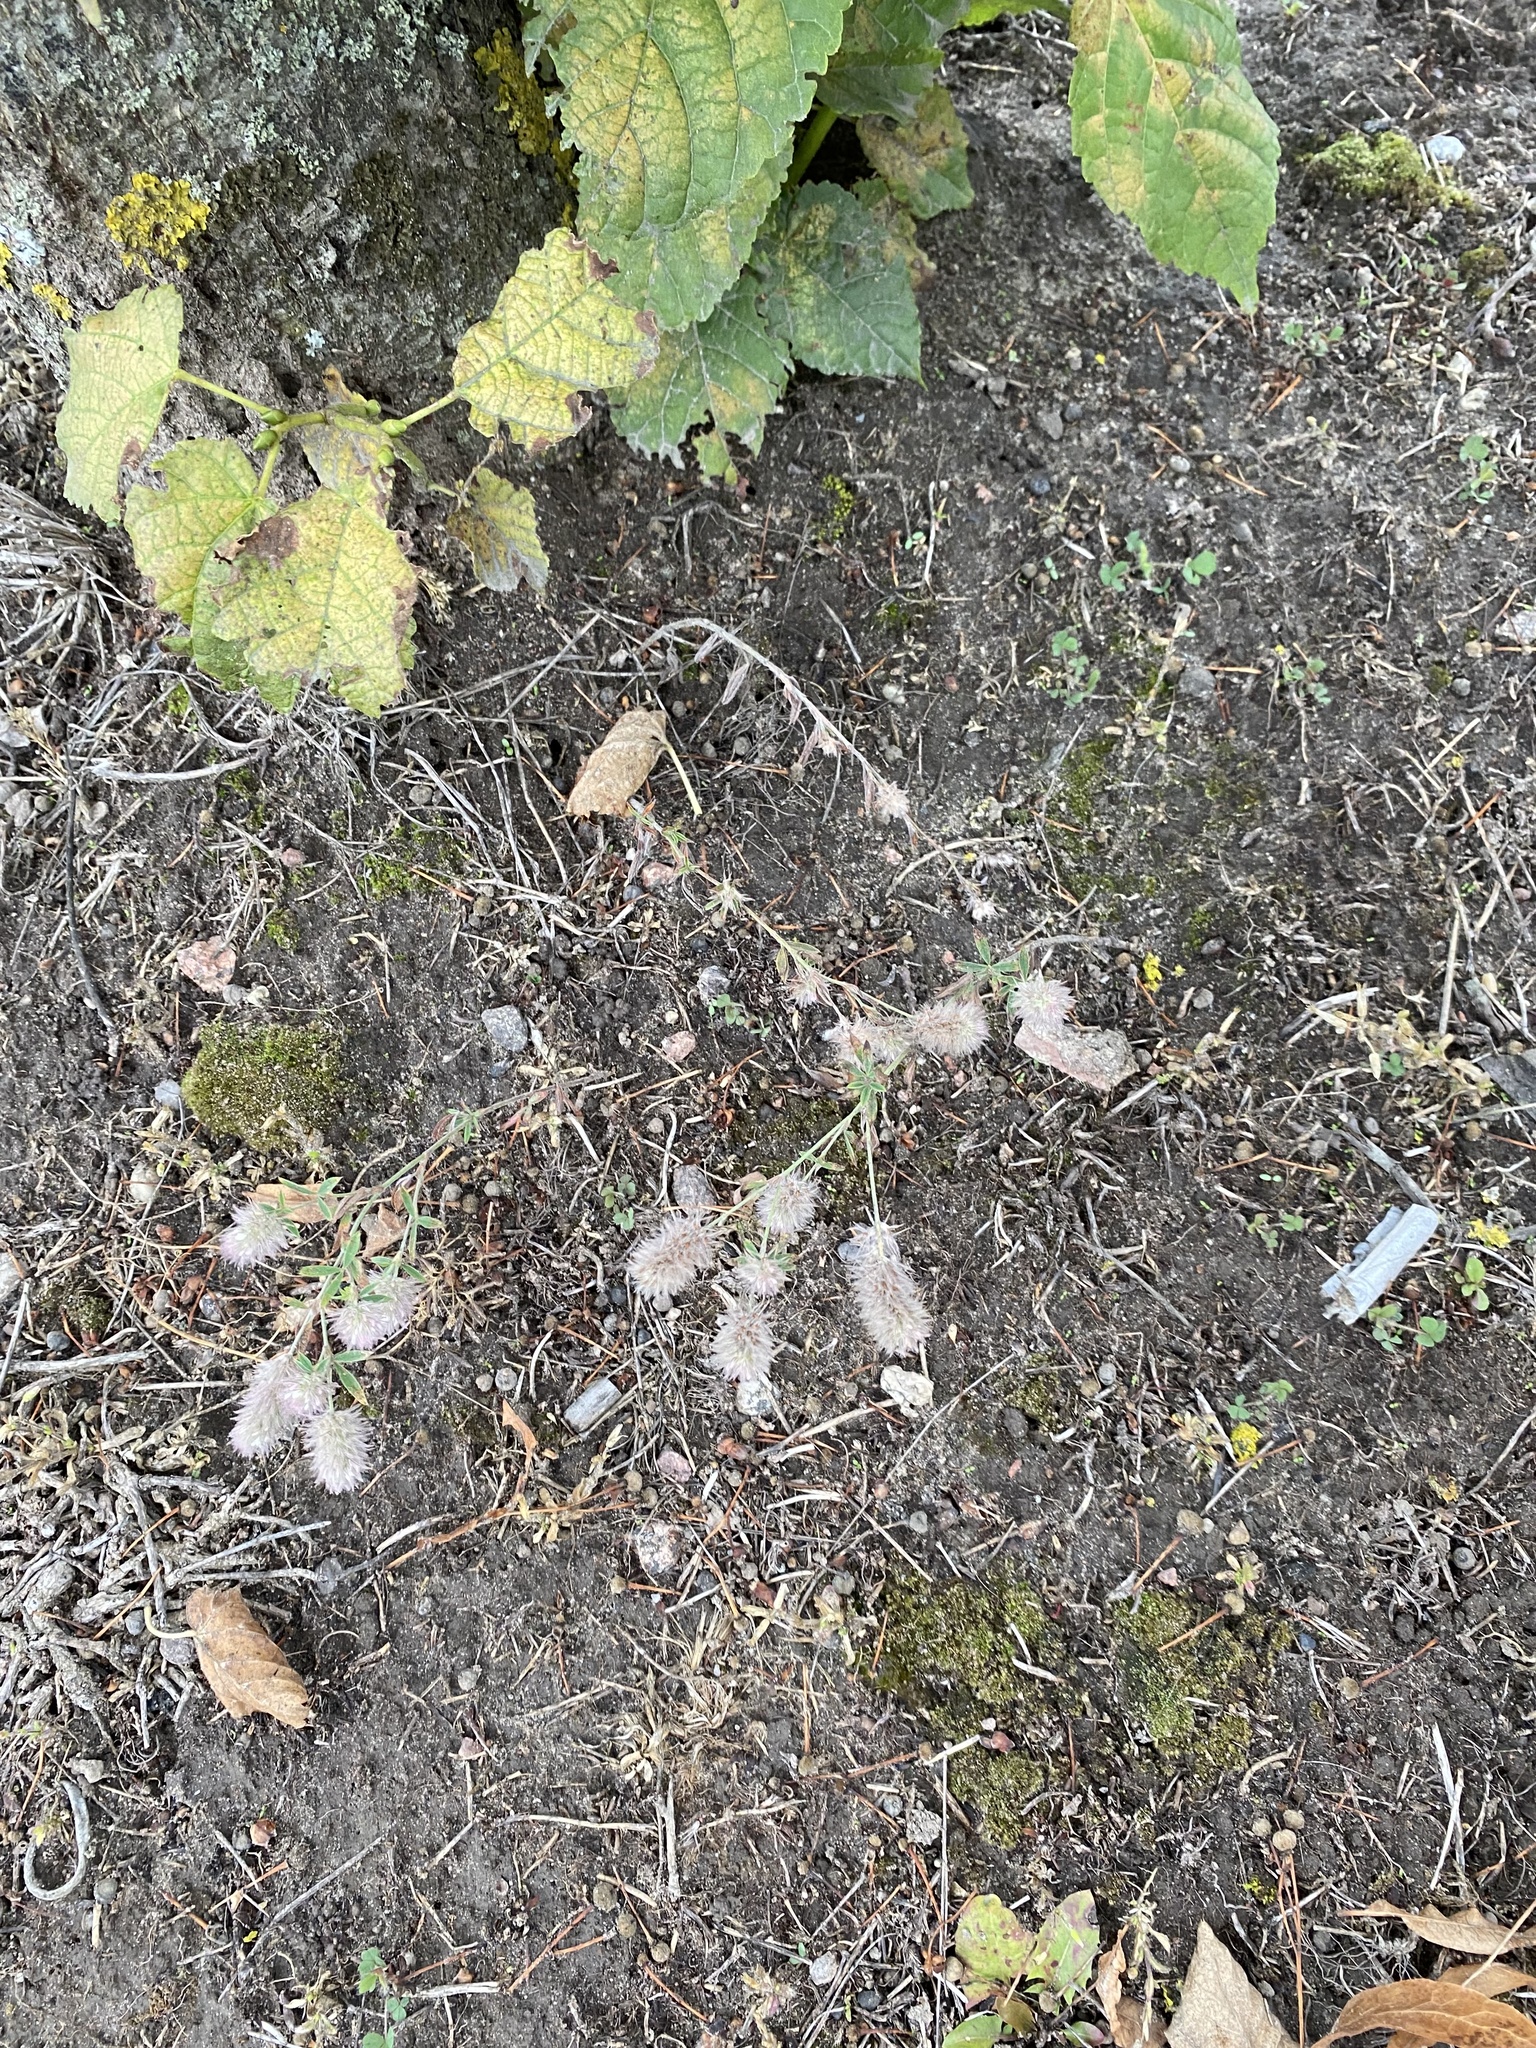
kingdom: Plantae
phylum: Tracheophyta
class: Magnoliopsida
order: Fabales
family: Fabaceae
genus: Trifolium
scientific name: Trifolium arvense
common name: Hare's-foot clover
